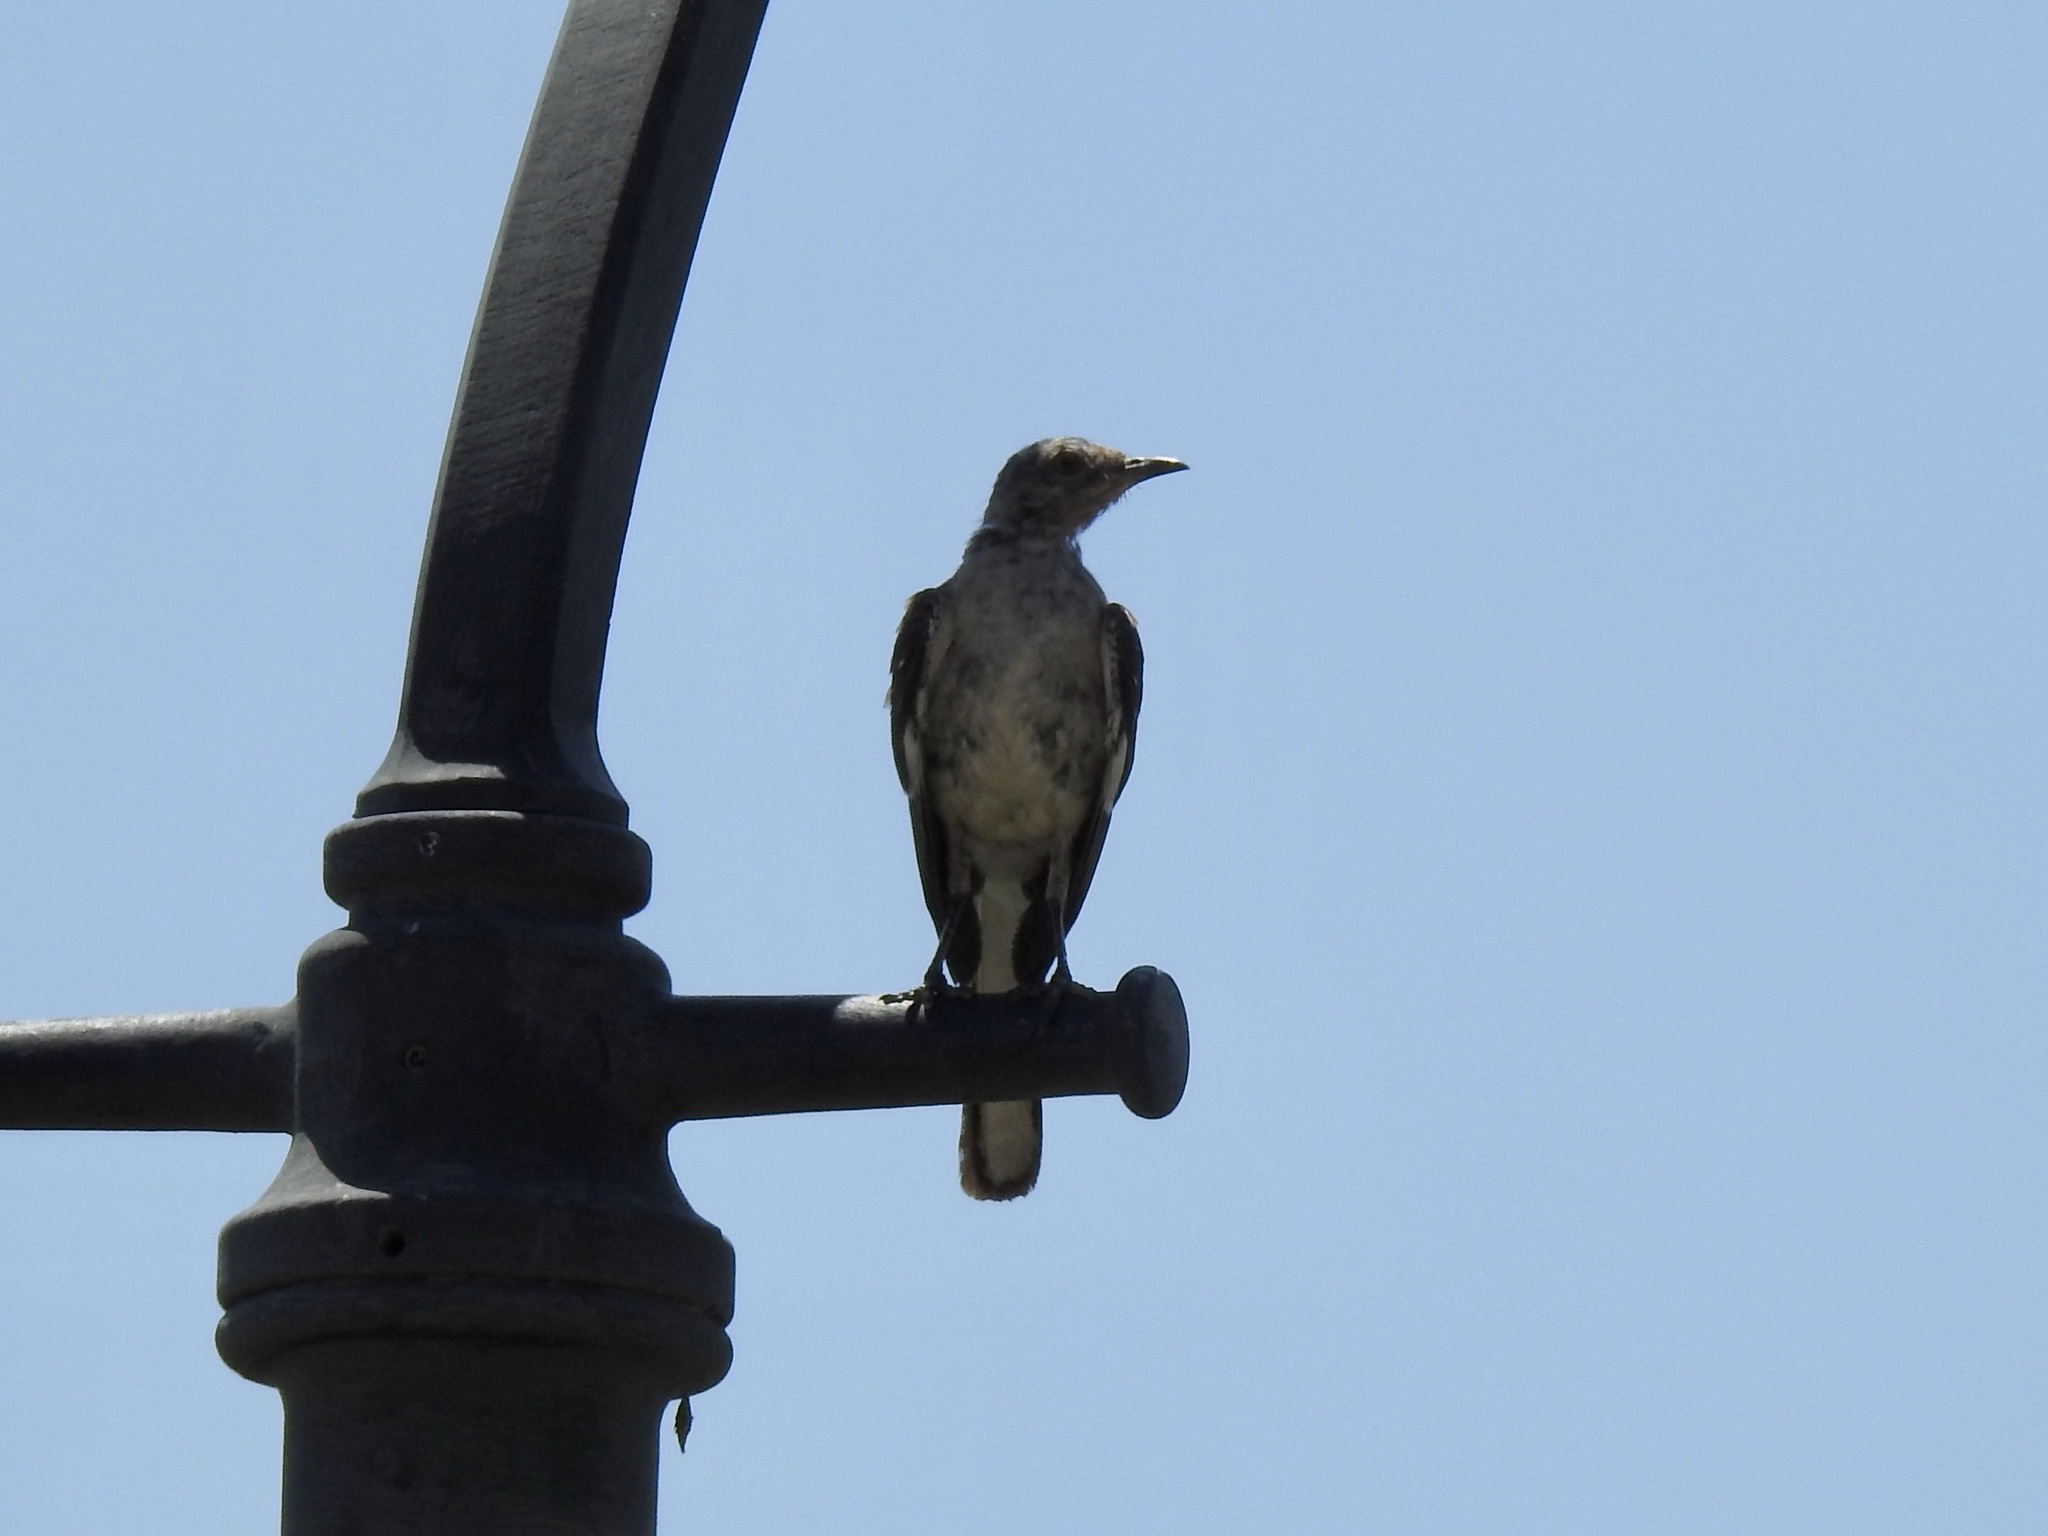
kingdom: Animalia
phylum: Chordata
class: Aves
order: Passeriformes
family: Mimidae
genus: Mimus
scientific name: Mimus polyglottos
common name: Northern mockingbird
